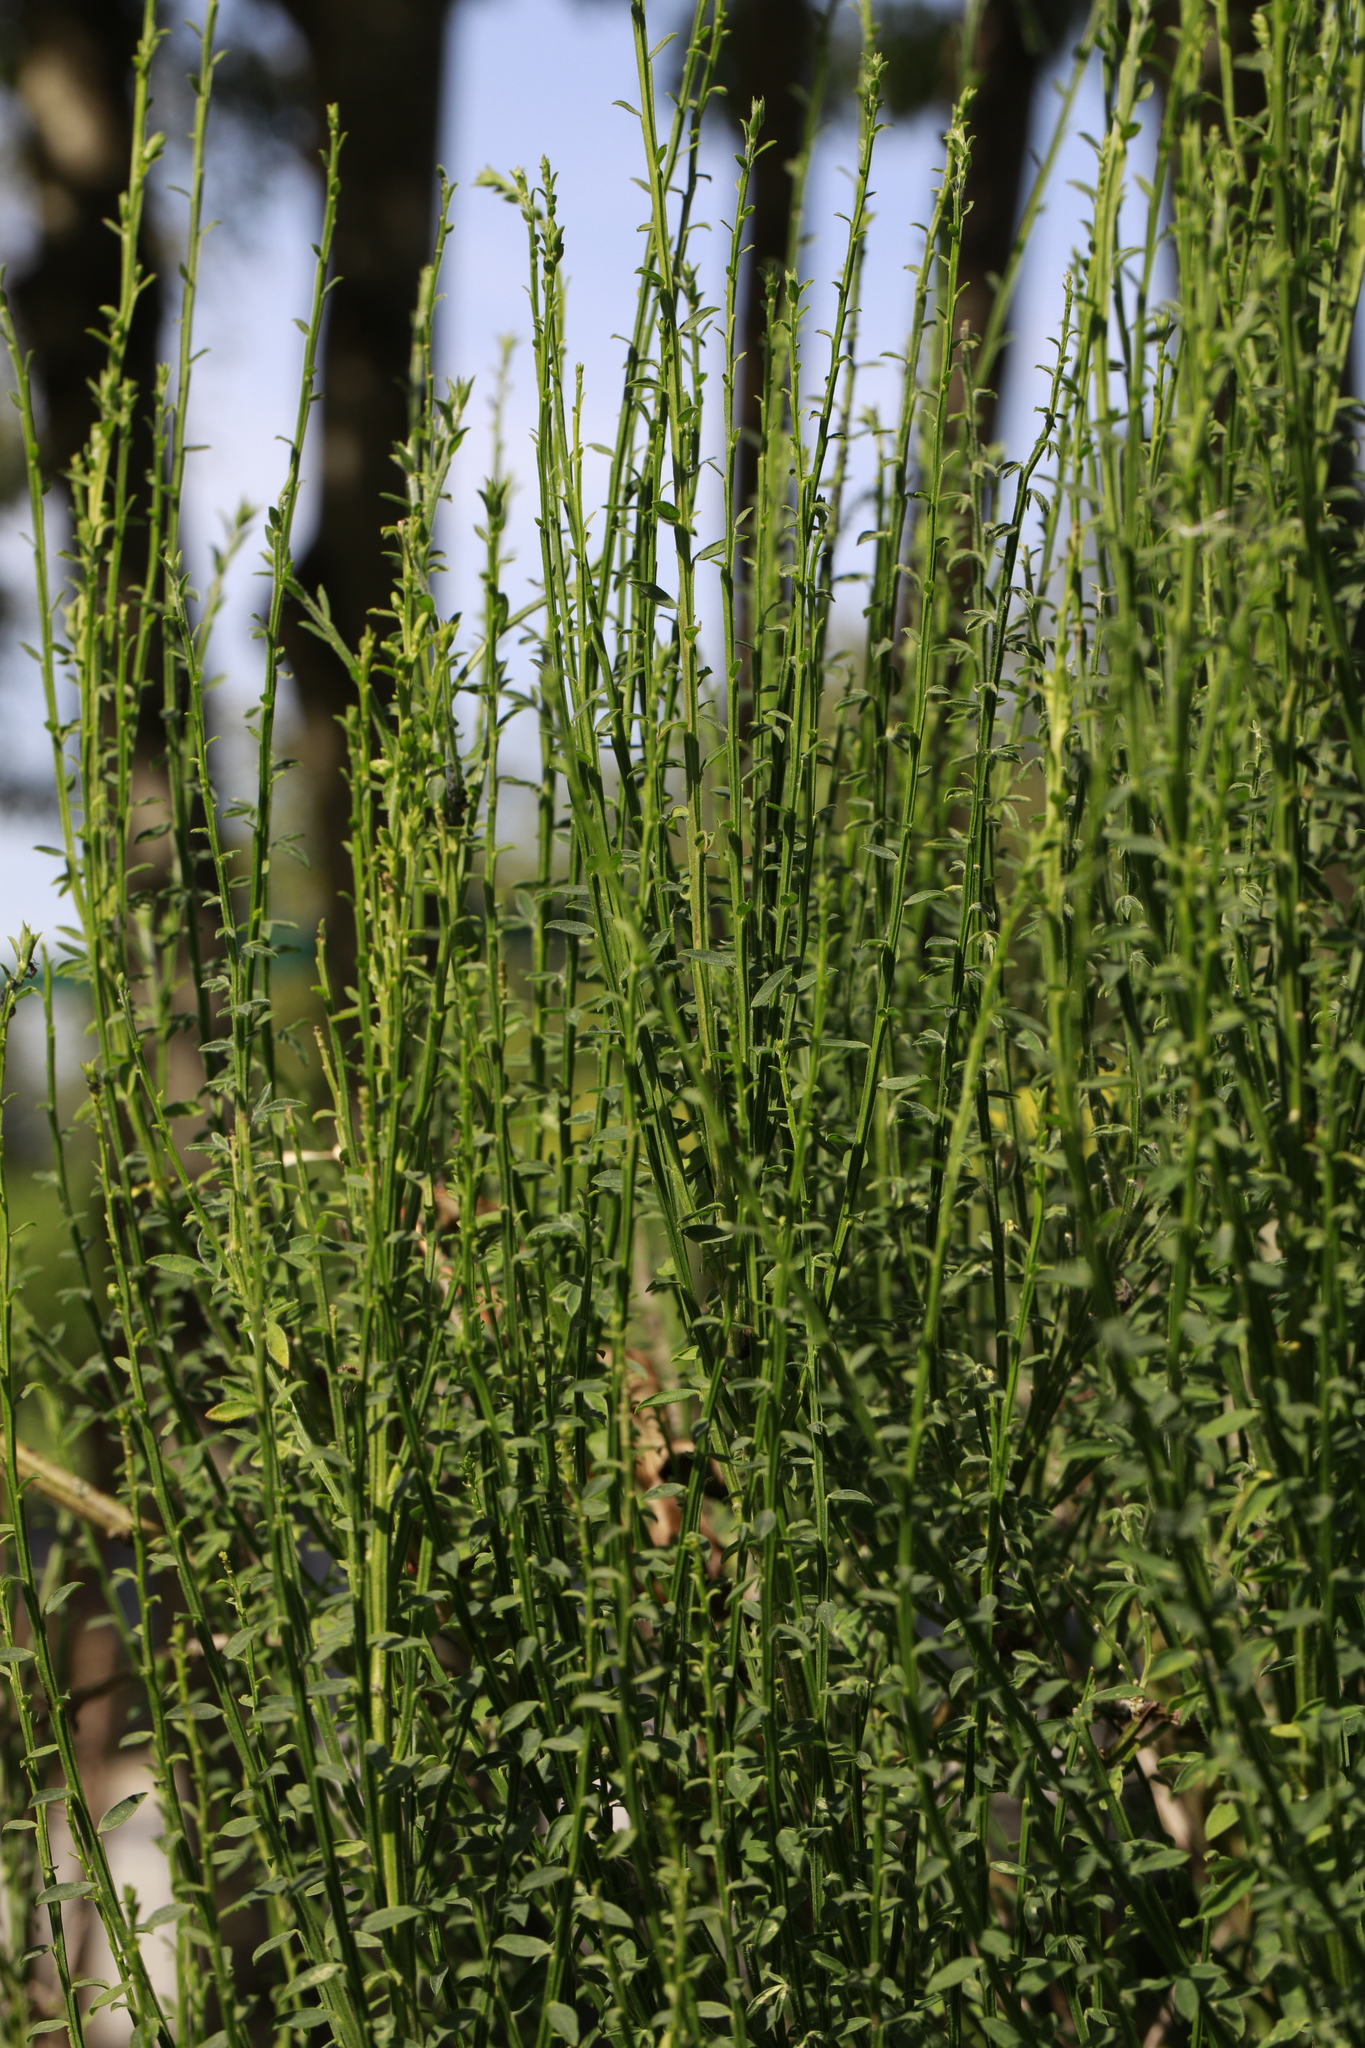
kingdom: Plantae
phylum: Tracheophyta
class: Magnoliopsida
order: Fabales
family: Fabaceae
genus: Cytisus
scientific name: Cytisus scoparius
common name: Scotch broom
